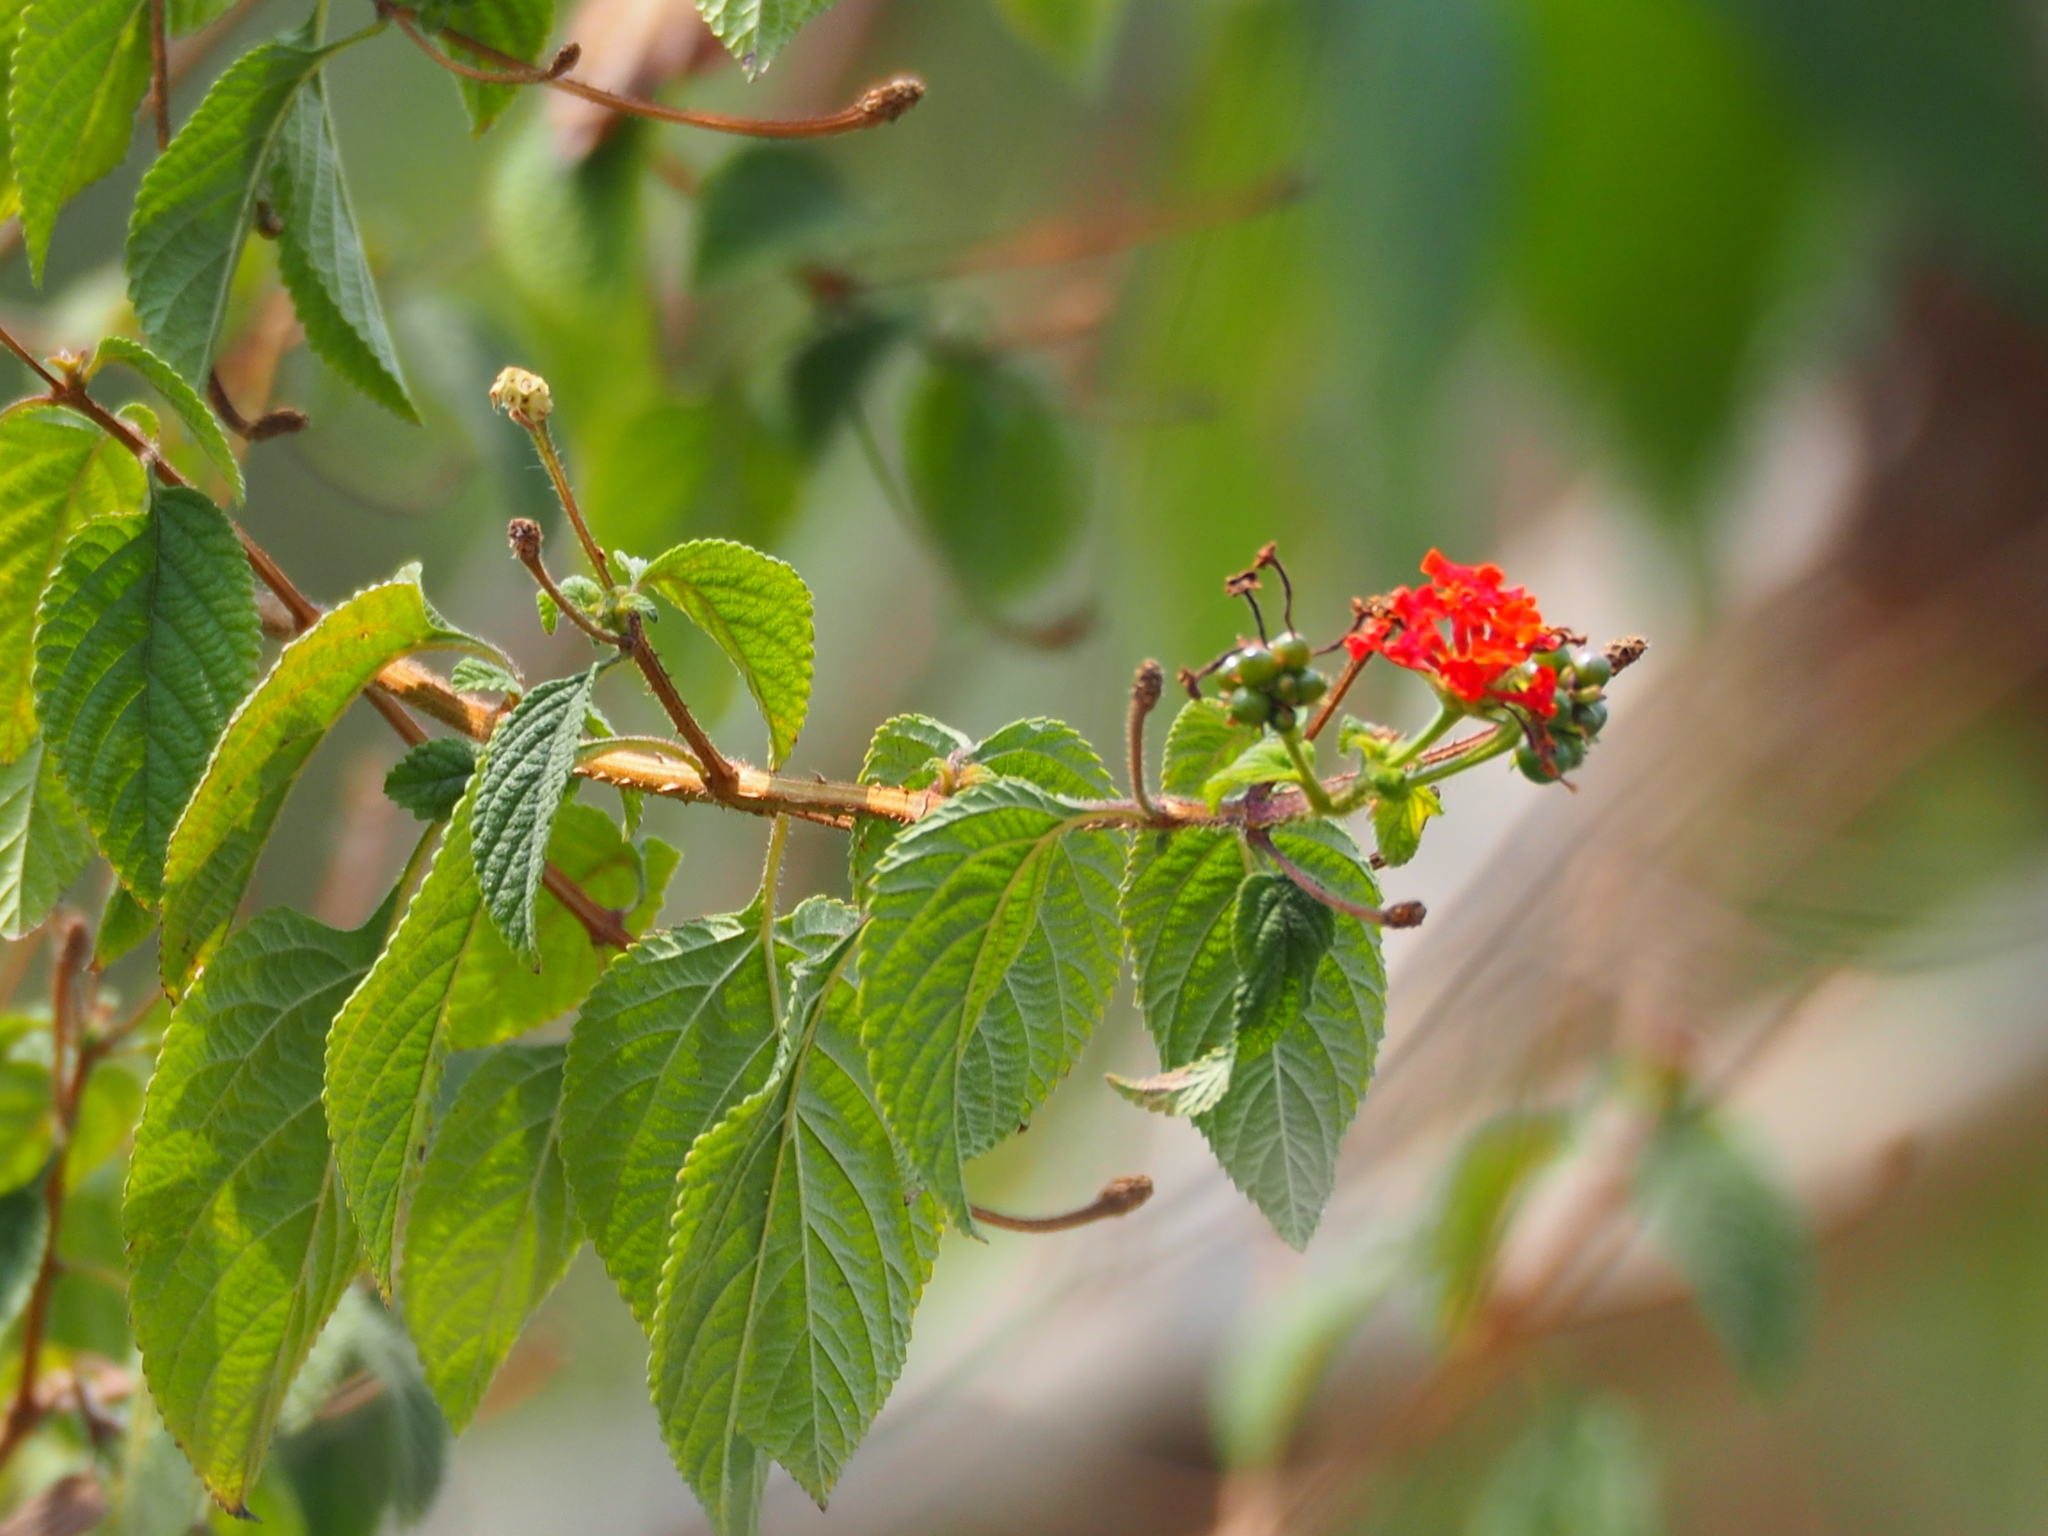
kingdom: Plantae
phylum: Tracheophyta
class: Magnoliopsida
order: Lamiales
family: Verbenaceae
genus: Lantana
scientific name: Lantana camara
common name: Lantana
